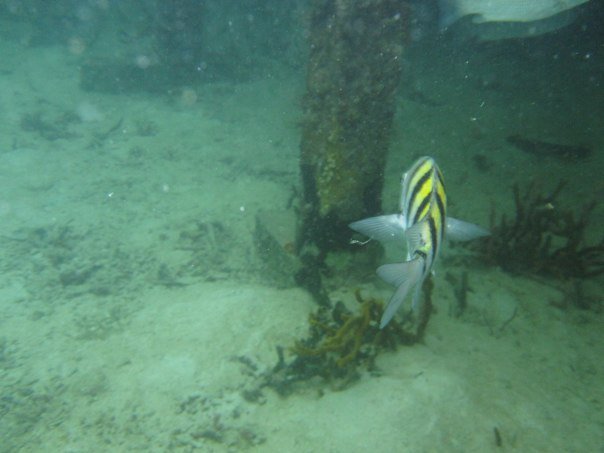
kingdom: Animalia
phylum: Chordata
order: Perciformes
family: Pomacentridae
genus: Abudefduf
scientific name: Abudefduf saxatilis
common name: Sergeant major
